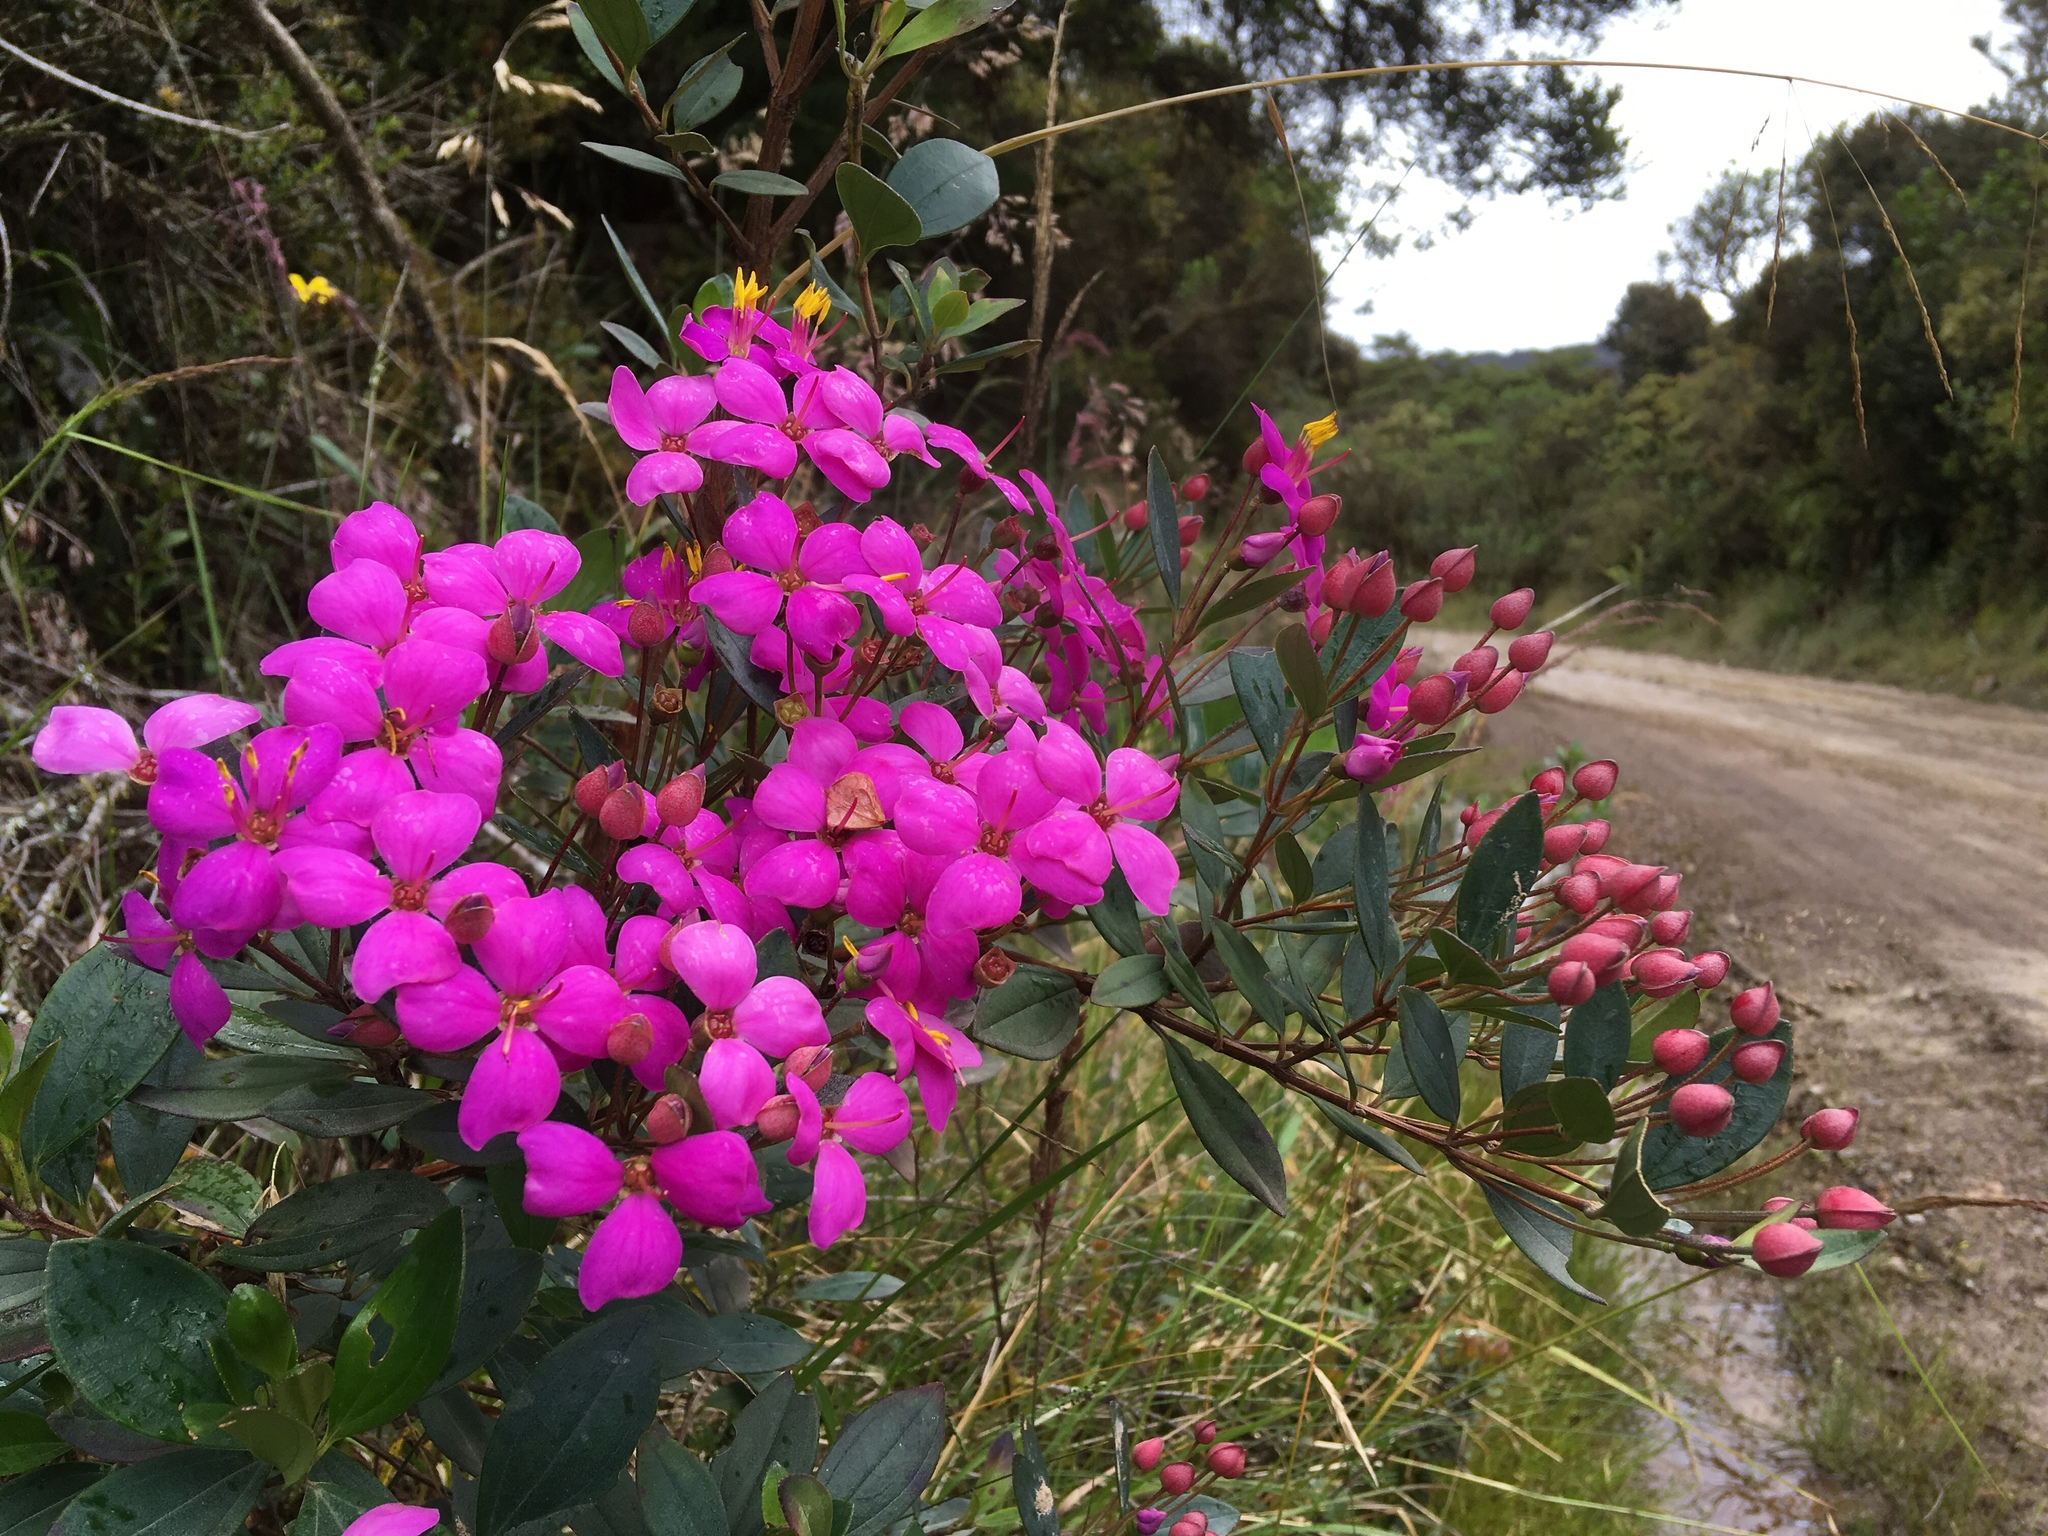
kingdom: Plantae
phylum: Tracheophyta
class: Magnoliopsida
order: Myrtales
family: Melastomataceae
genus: Bucquetia
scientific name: Bucquetia glutinosa
